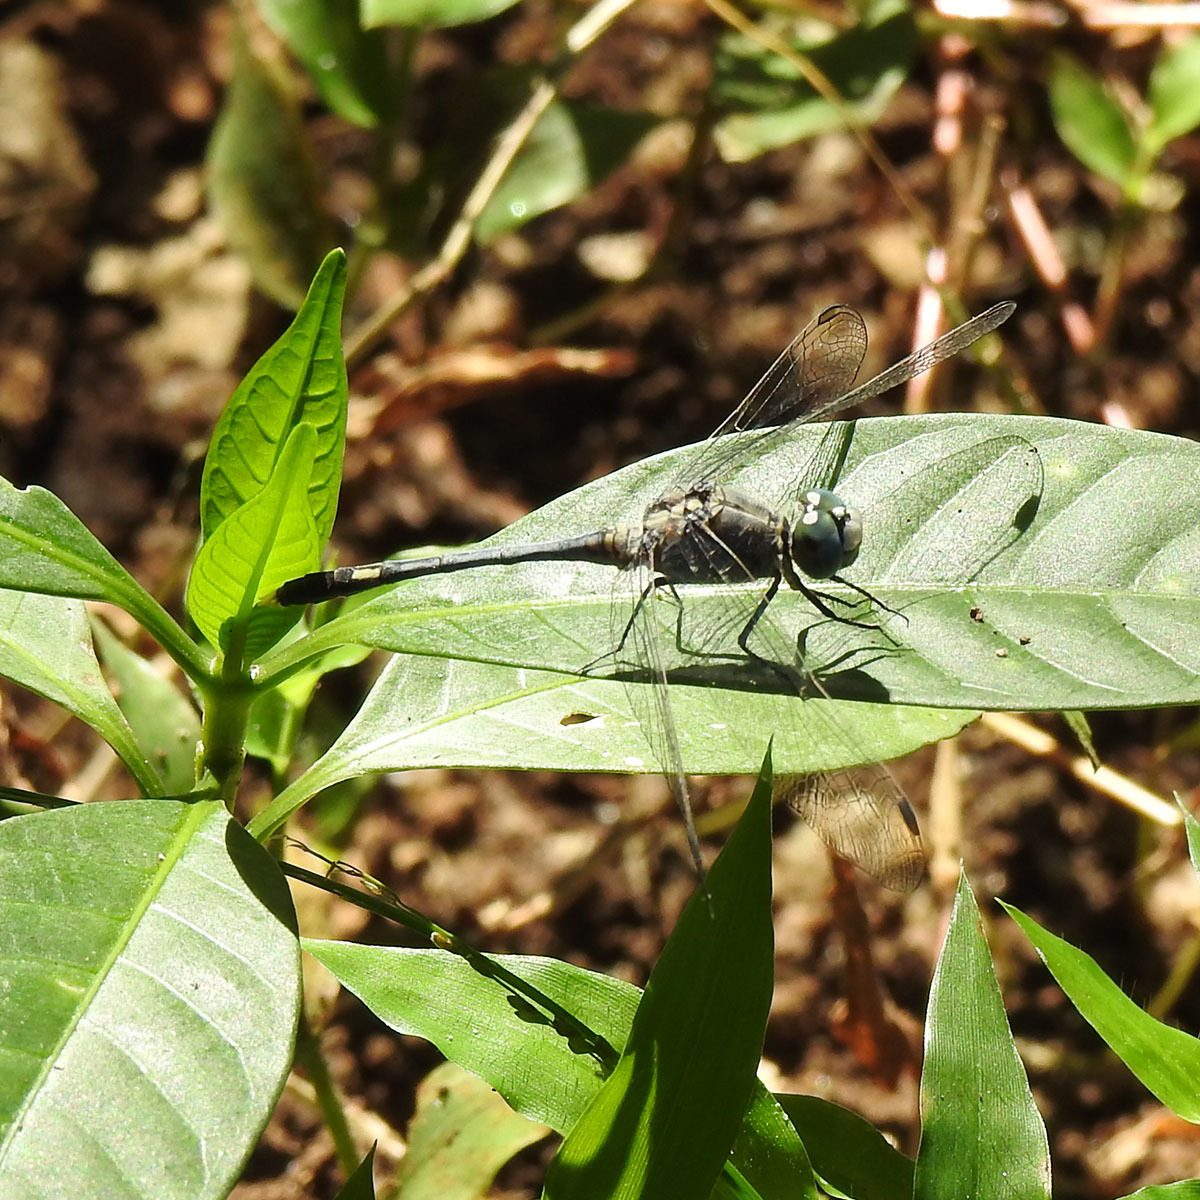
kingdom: Animalia
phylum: Arthropoda
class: Insecta
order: Odonata
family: Libellulidae
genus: Diplacodes
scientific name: Diplacodes trivialis
